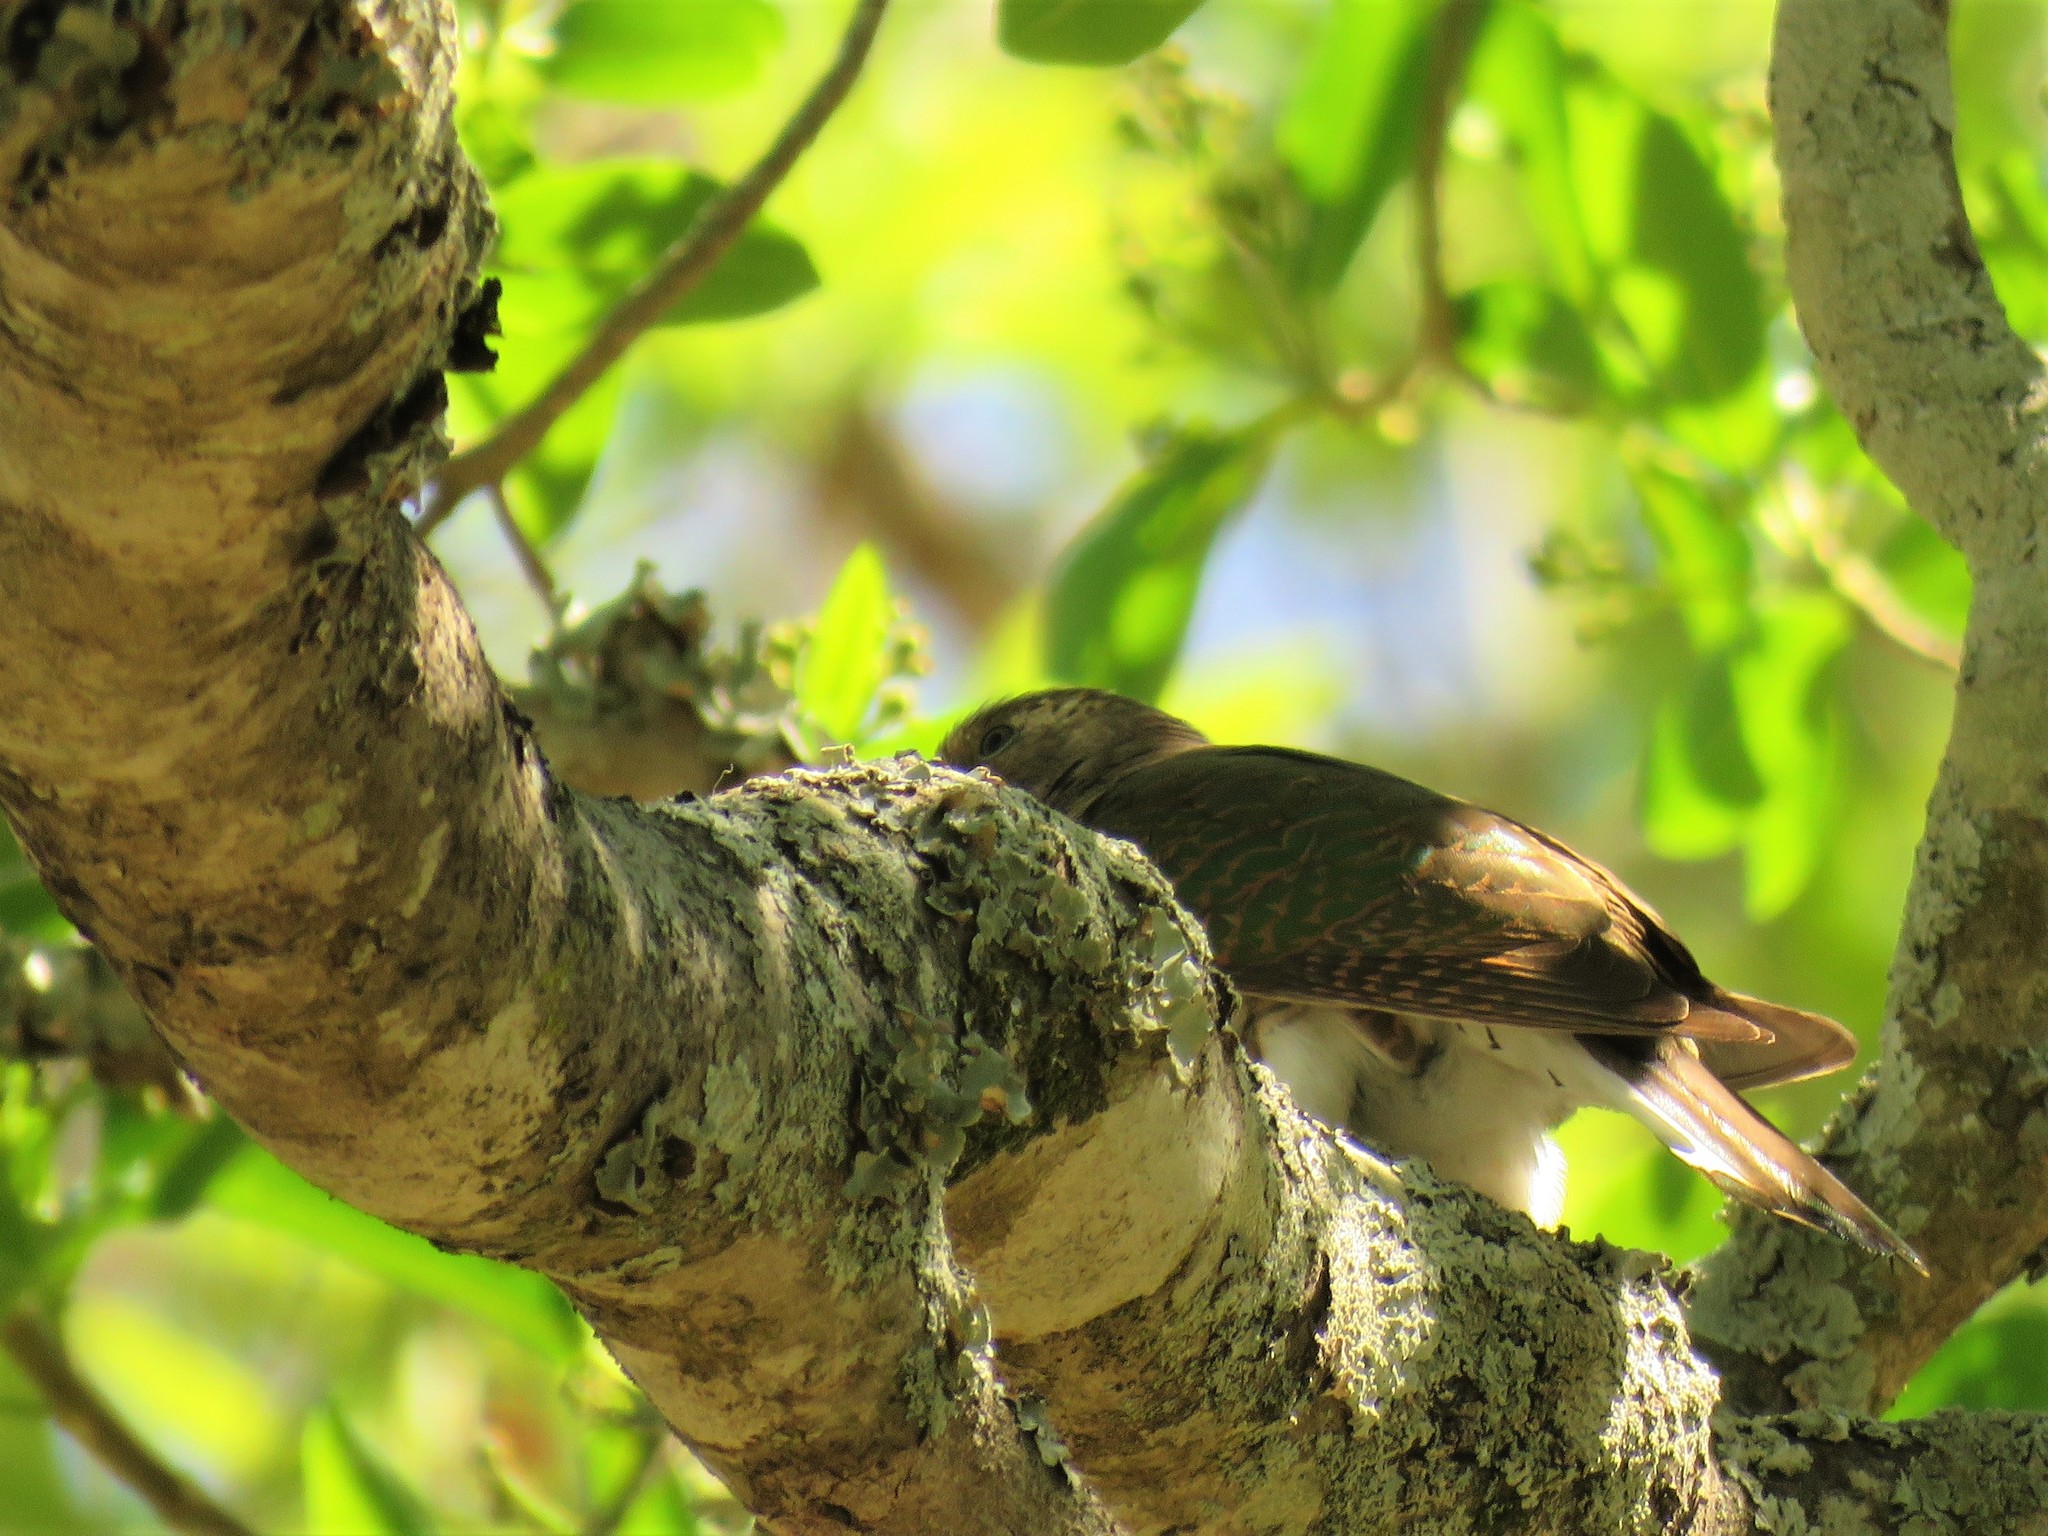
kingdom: Animalia
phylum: Chordata
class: Aves
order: Cuculiformes
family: Cuculidae
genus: Chrysococcyx
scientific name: Chrysococcyx klaas
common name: Klaas's cuckoo
